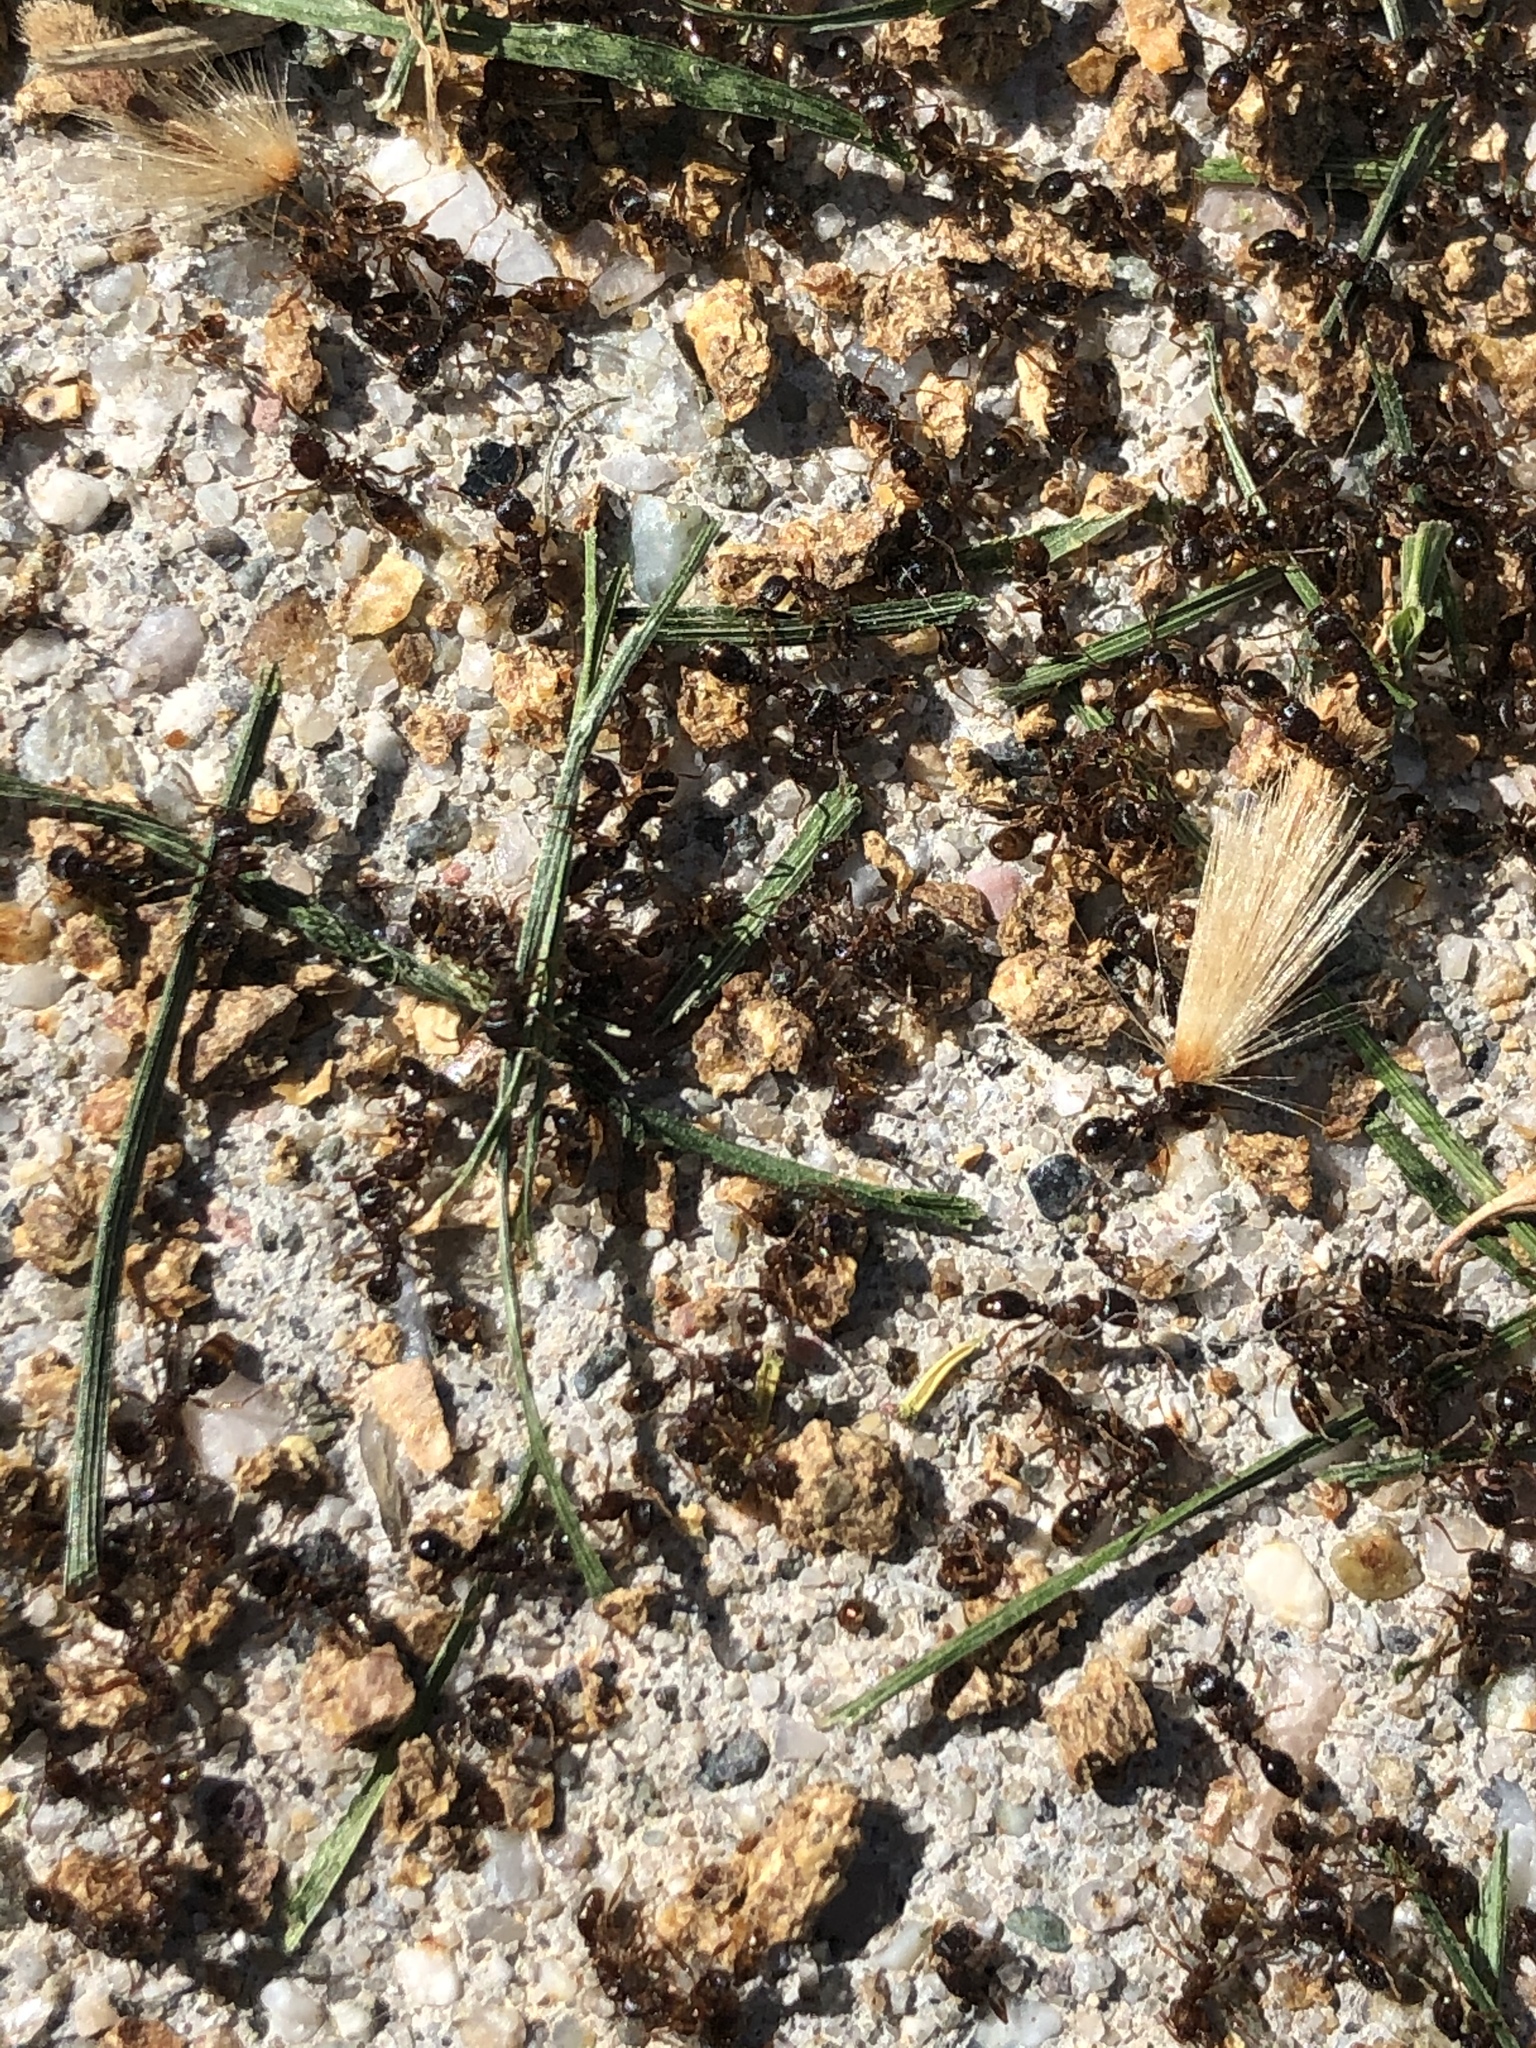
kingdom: Animalia
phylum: Arthropoda
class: Insecta
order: Hymenoptera
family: Formicidae
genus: Tetramorium
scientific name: Tetramorium immigrans
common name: Pavement ant
